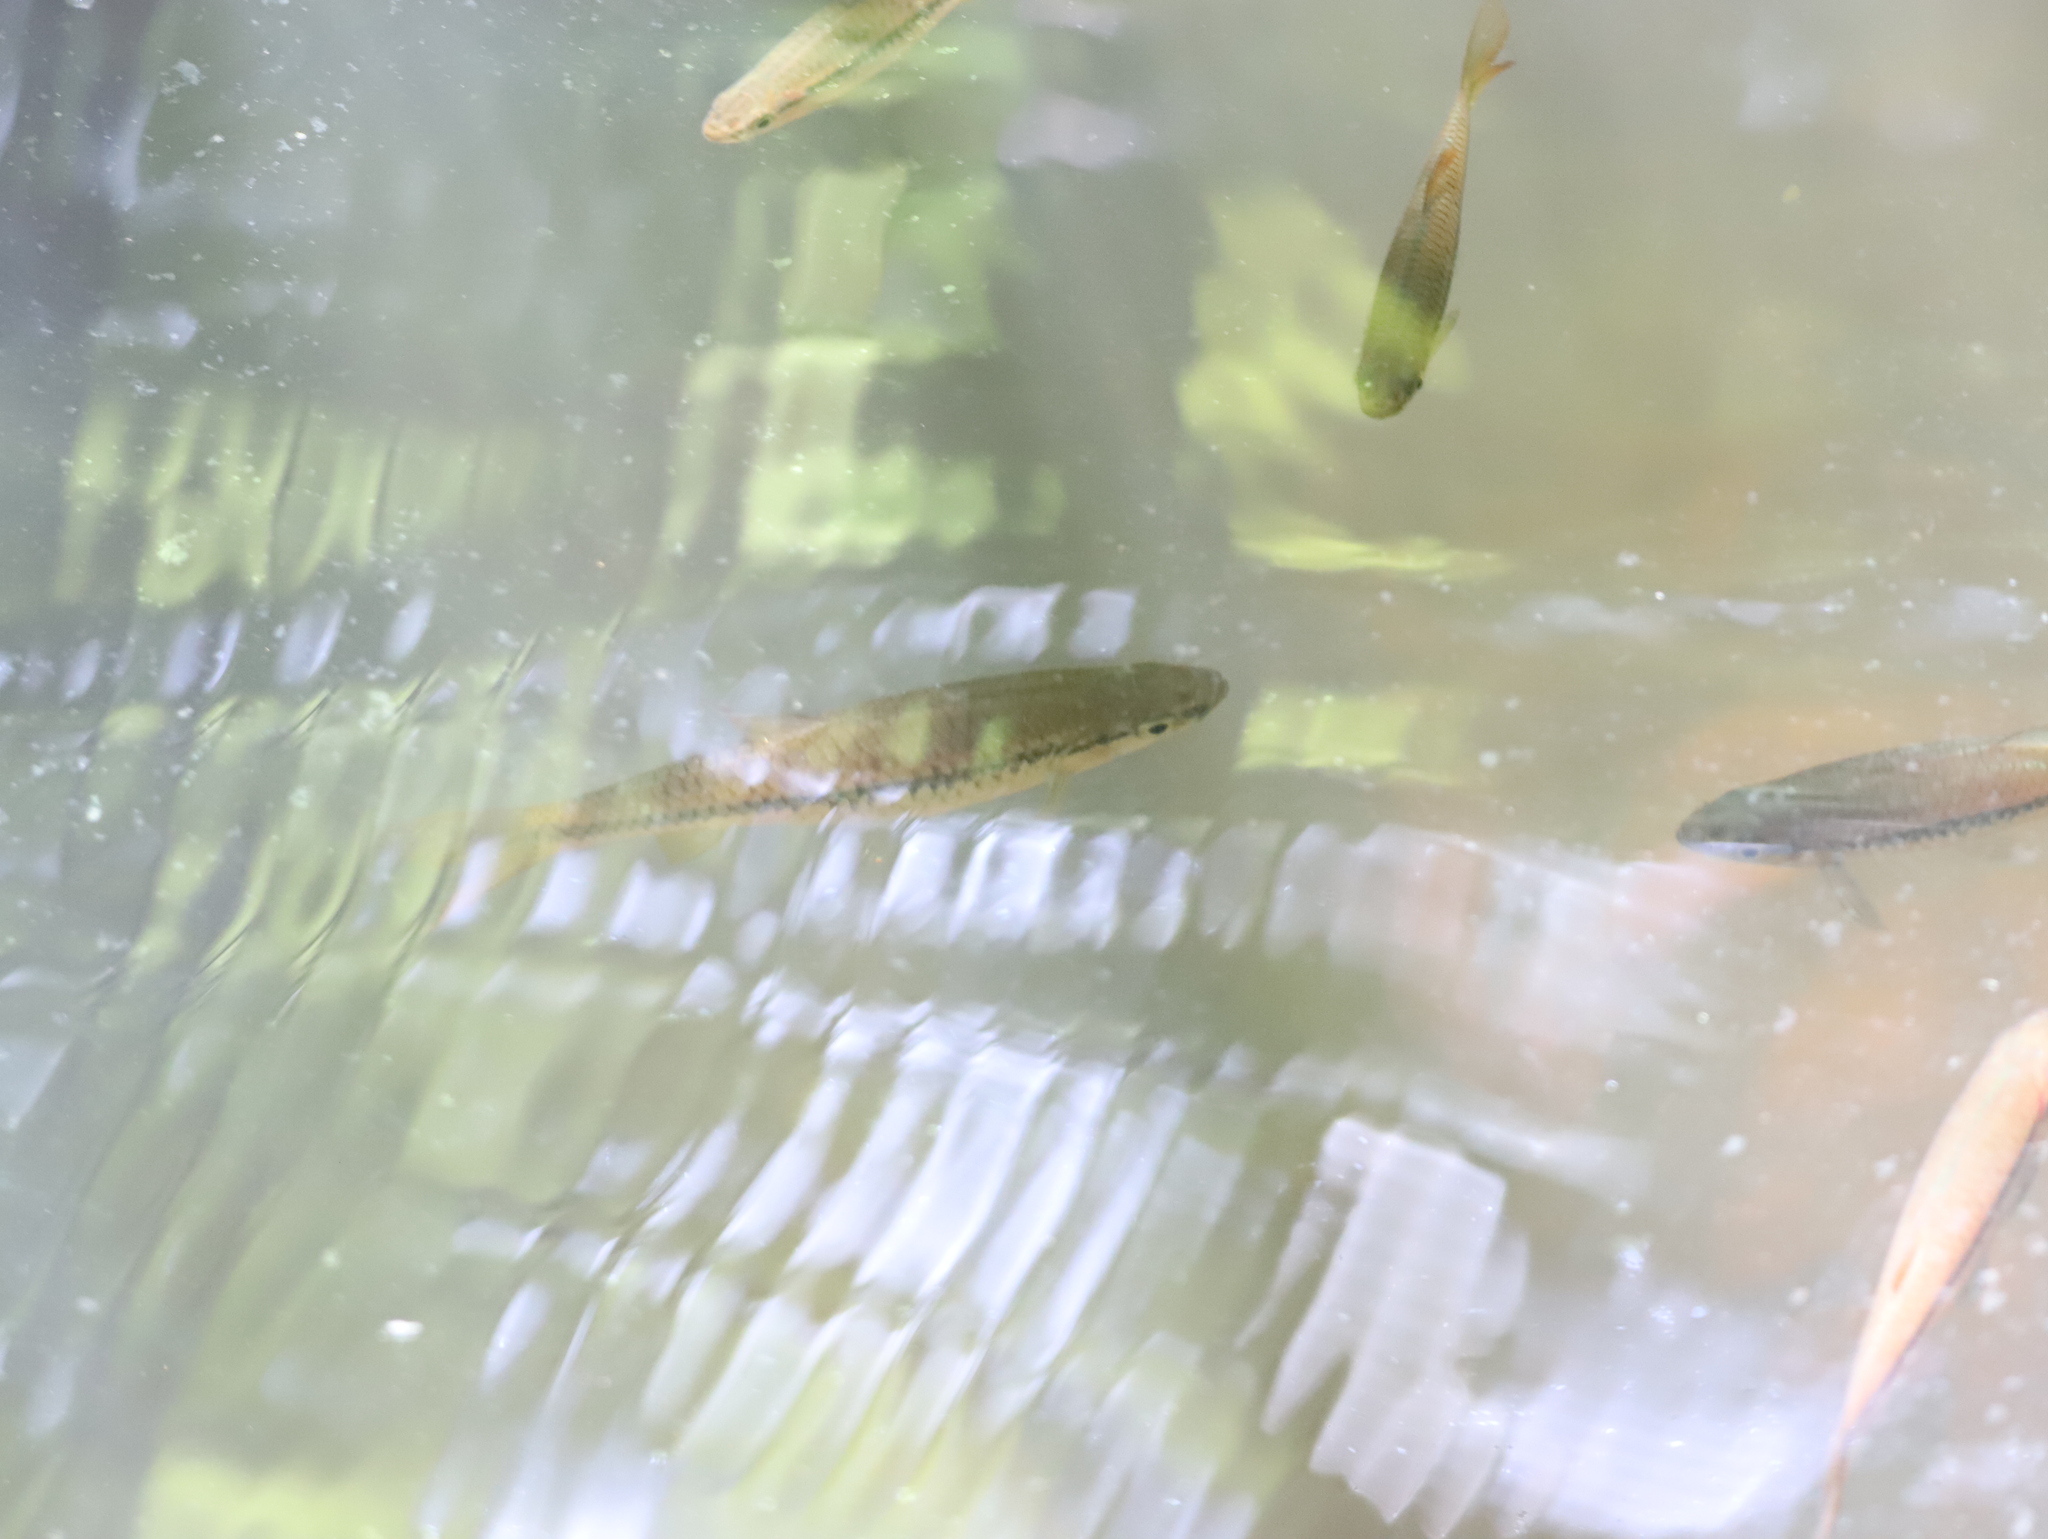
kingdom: Animalia
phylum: Chordata
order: Cypriniformes
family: Cyprinidae
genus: Rasbora
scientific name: Rasbora dandia
